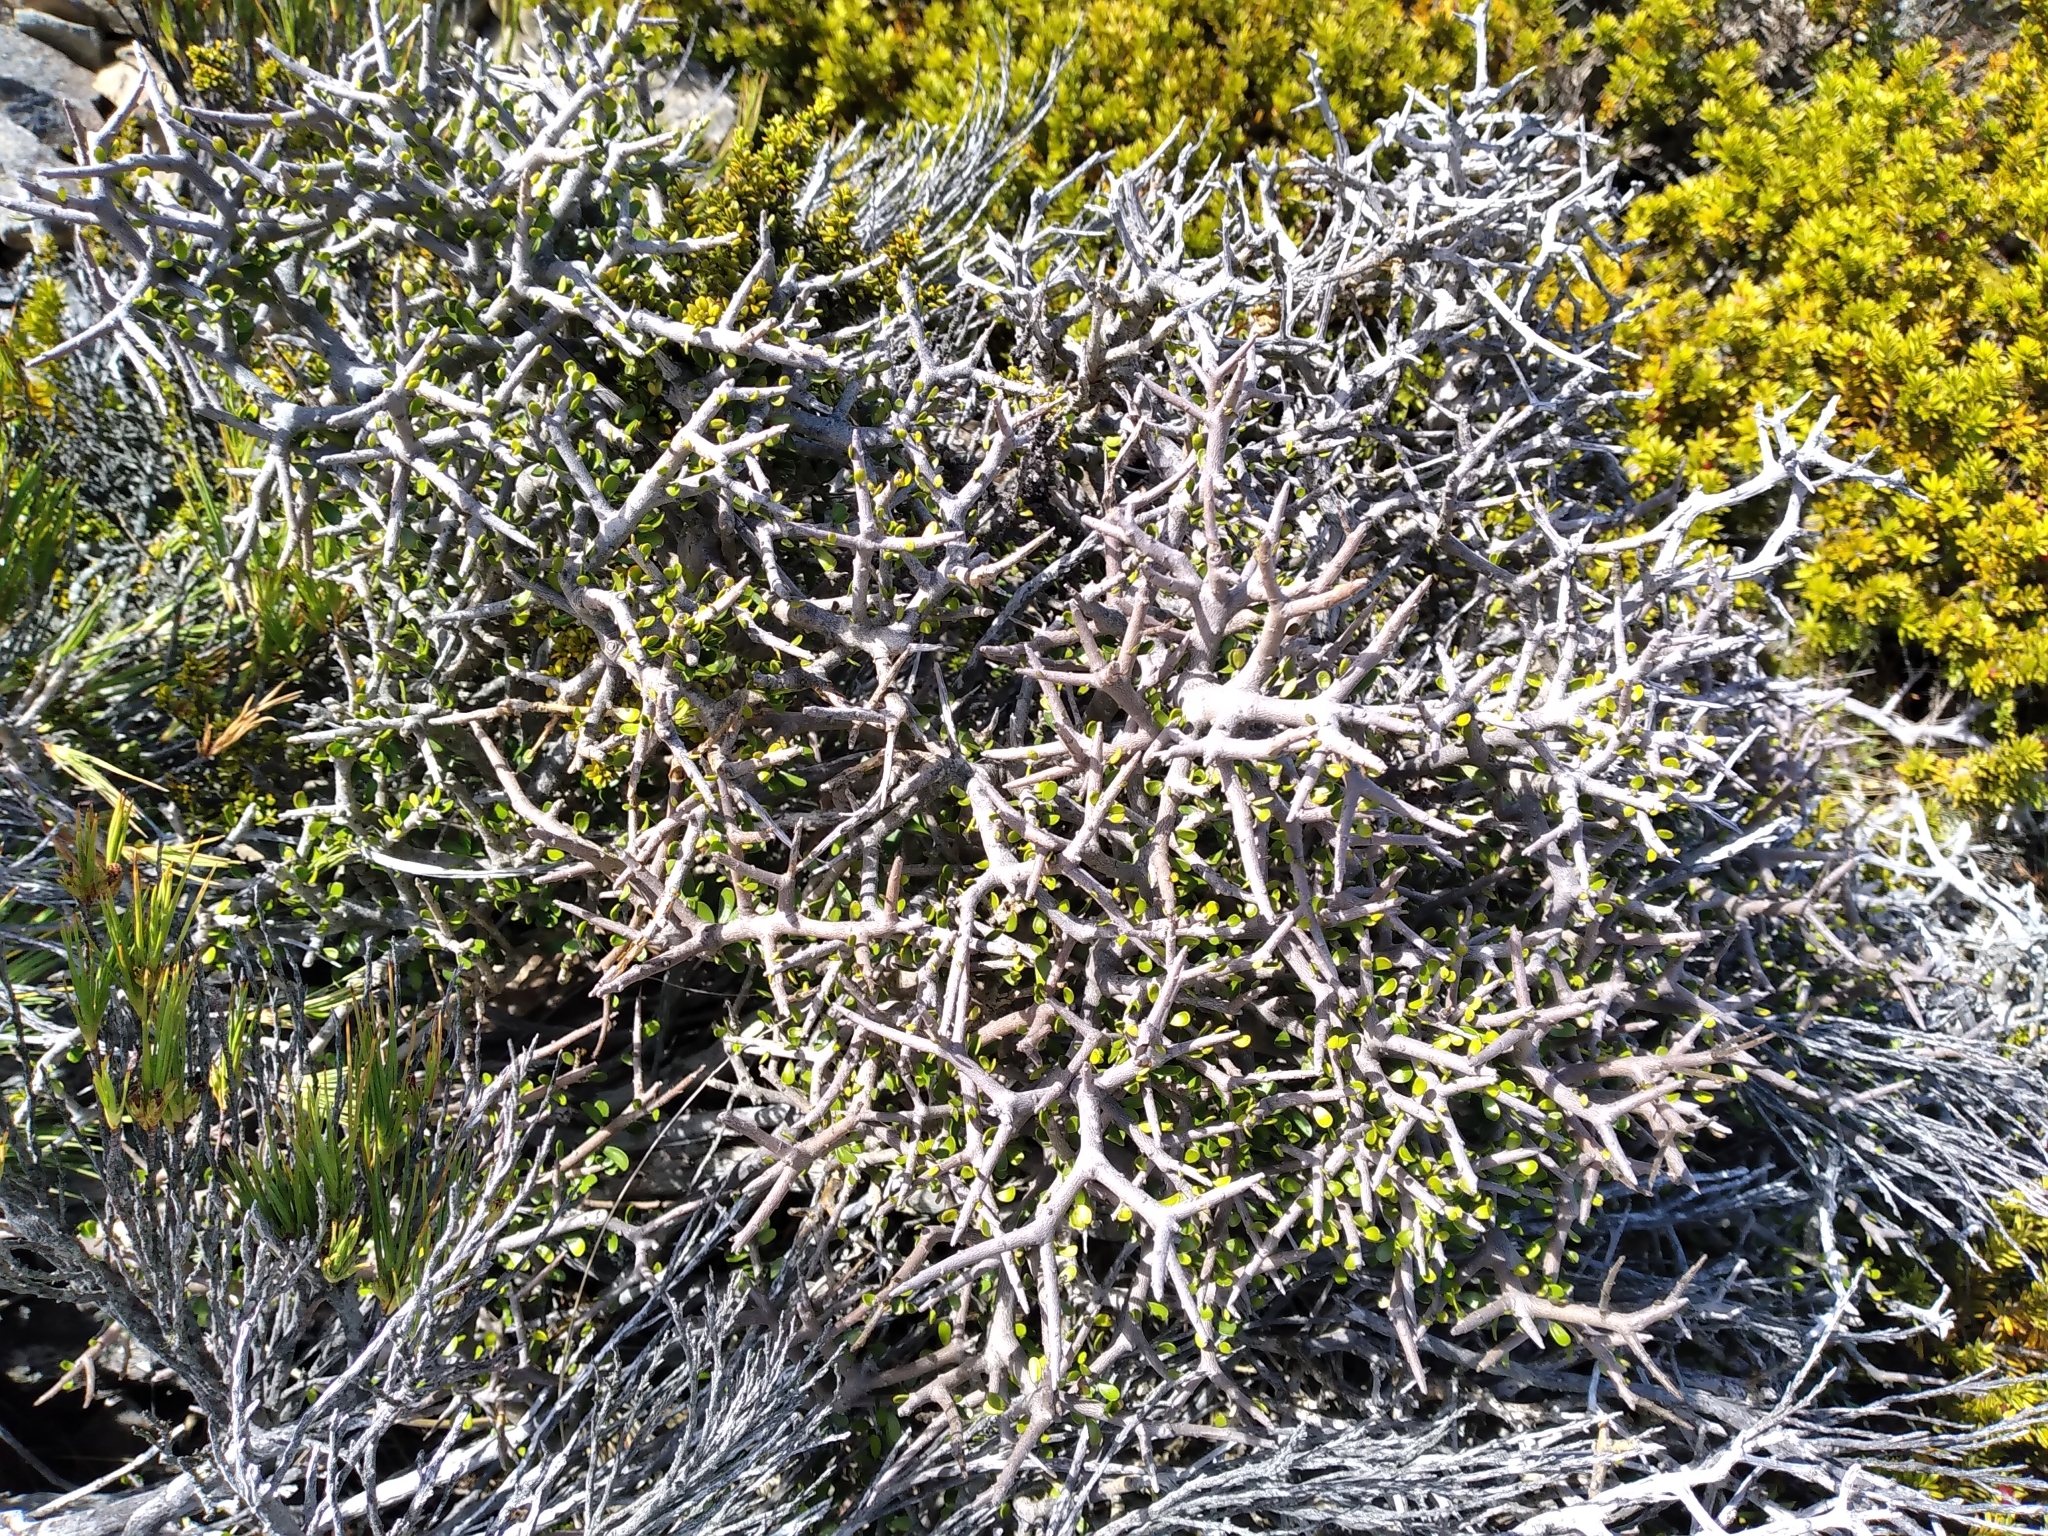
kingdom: Plantae
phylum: Tracheophyta
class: Magnoliopsida
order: Malpighiales
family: Violaceae
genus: Melicytus
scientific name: Melicytus alpinus
